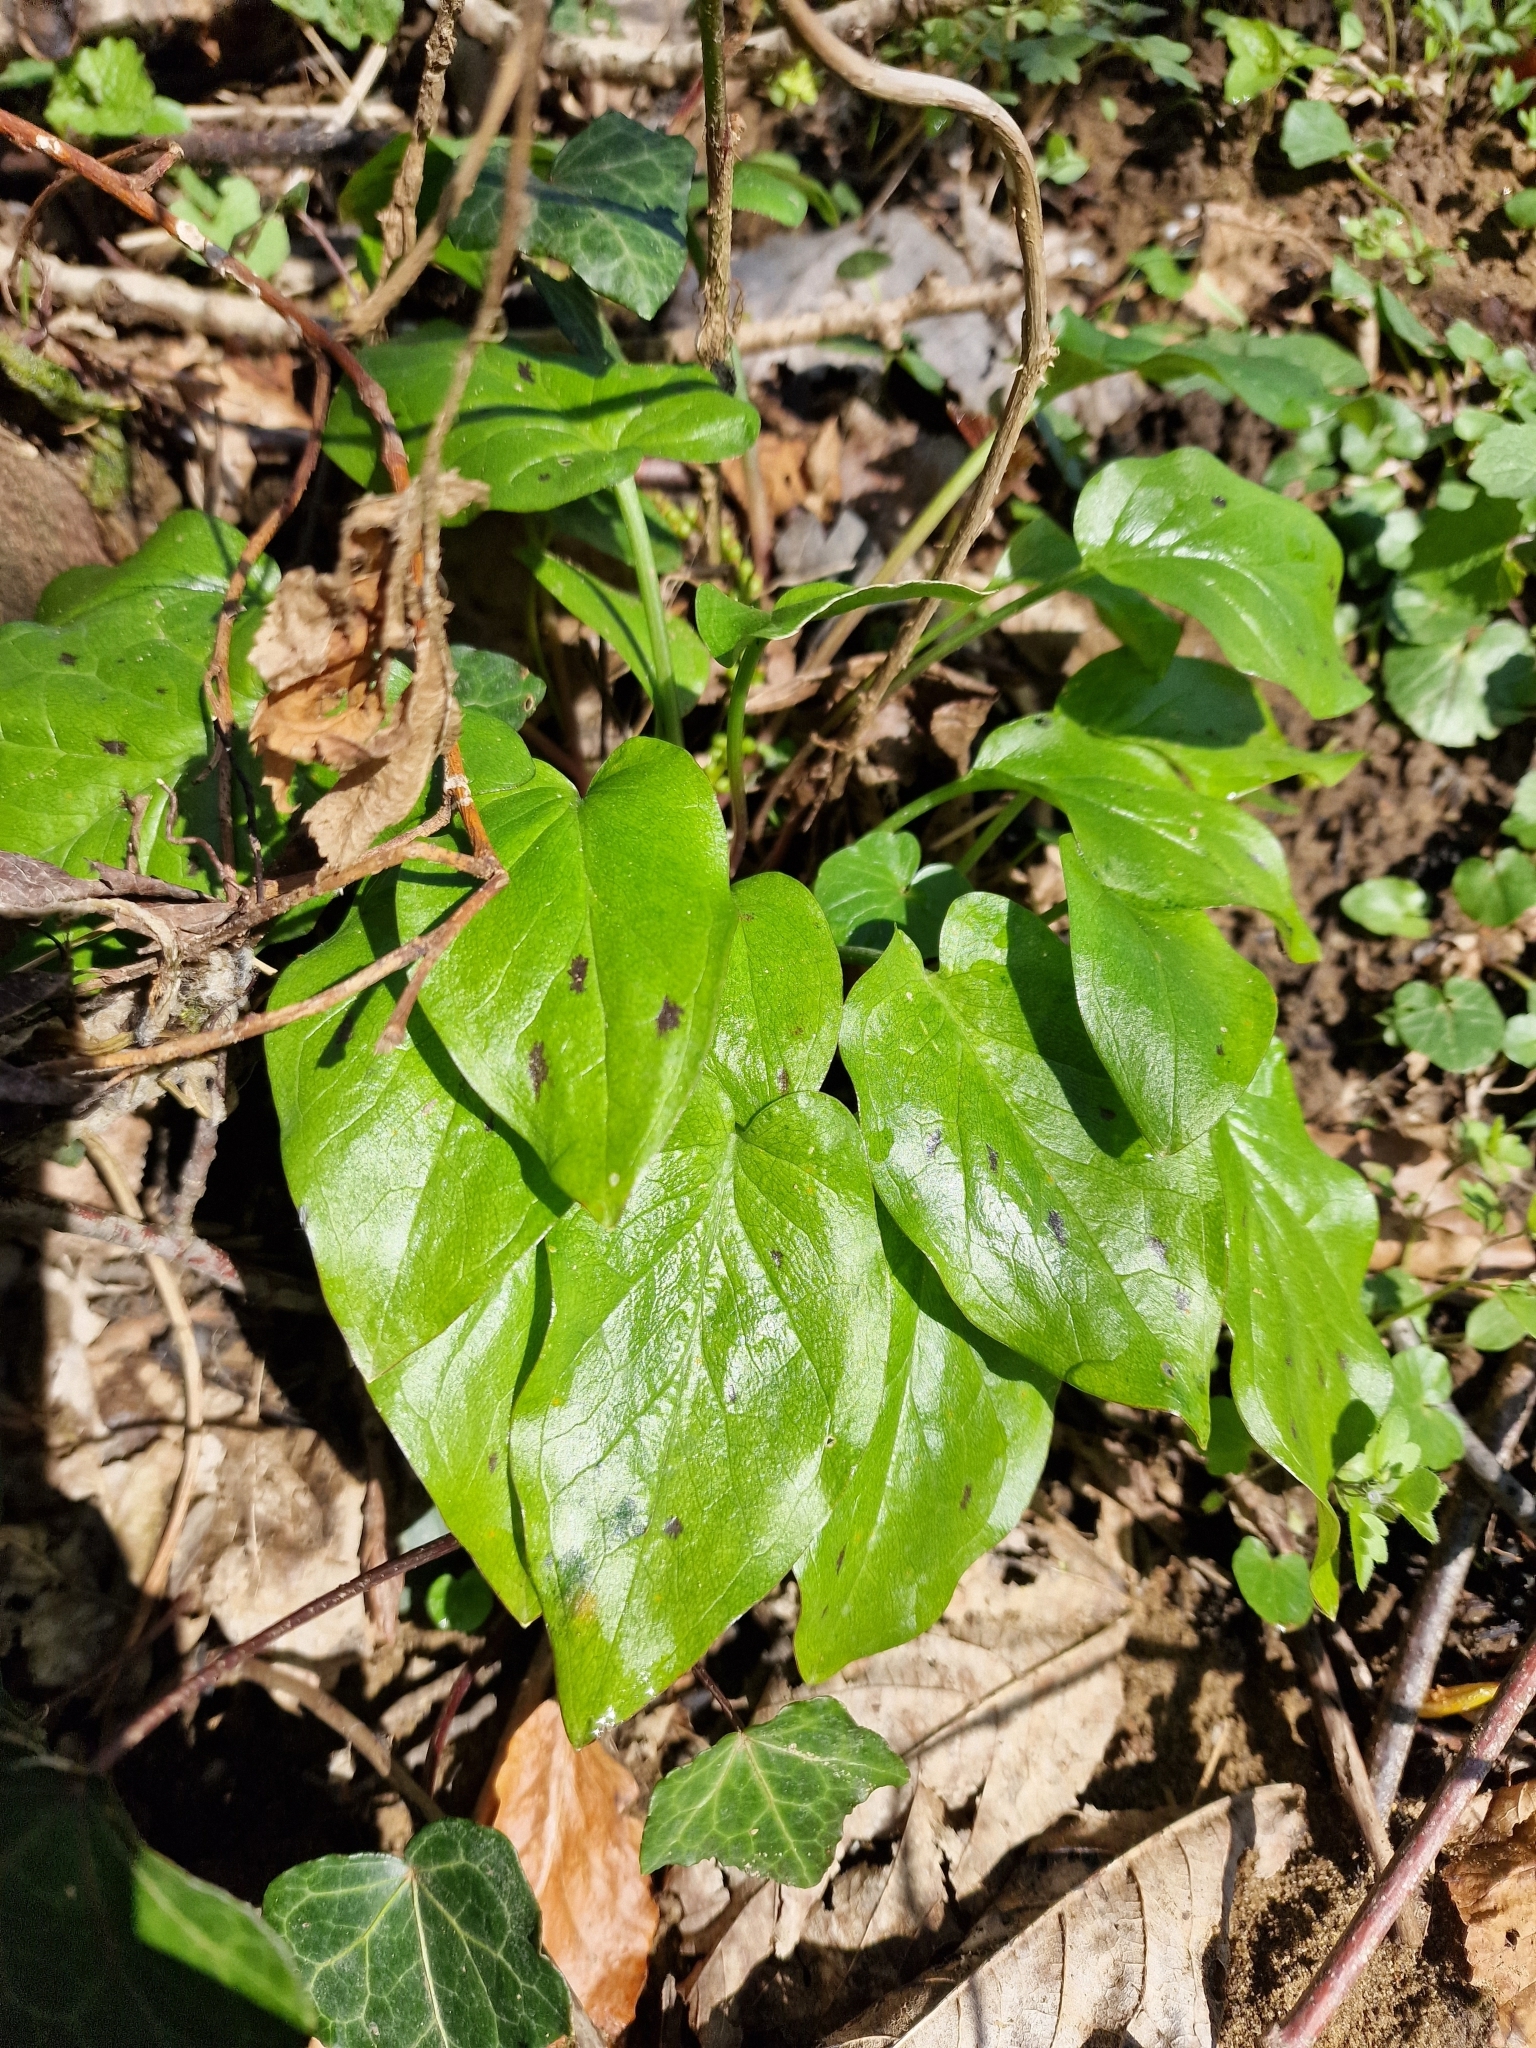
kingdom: Plantae
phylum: Tracheophyta
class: Liliopsida
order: Alismatales
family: Araceae
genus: Arum
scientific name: Arum maculatum
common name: Lords-and-ladies
